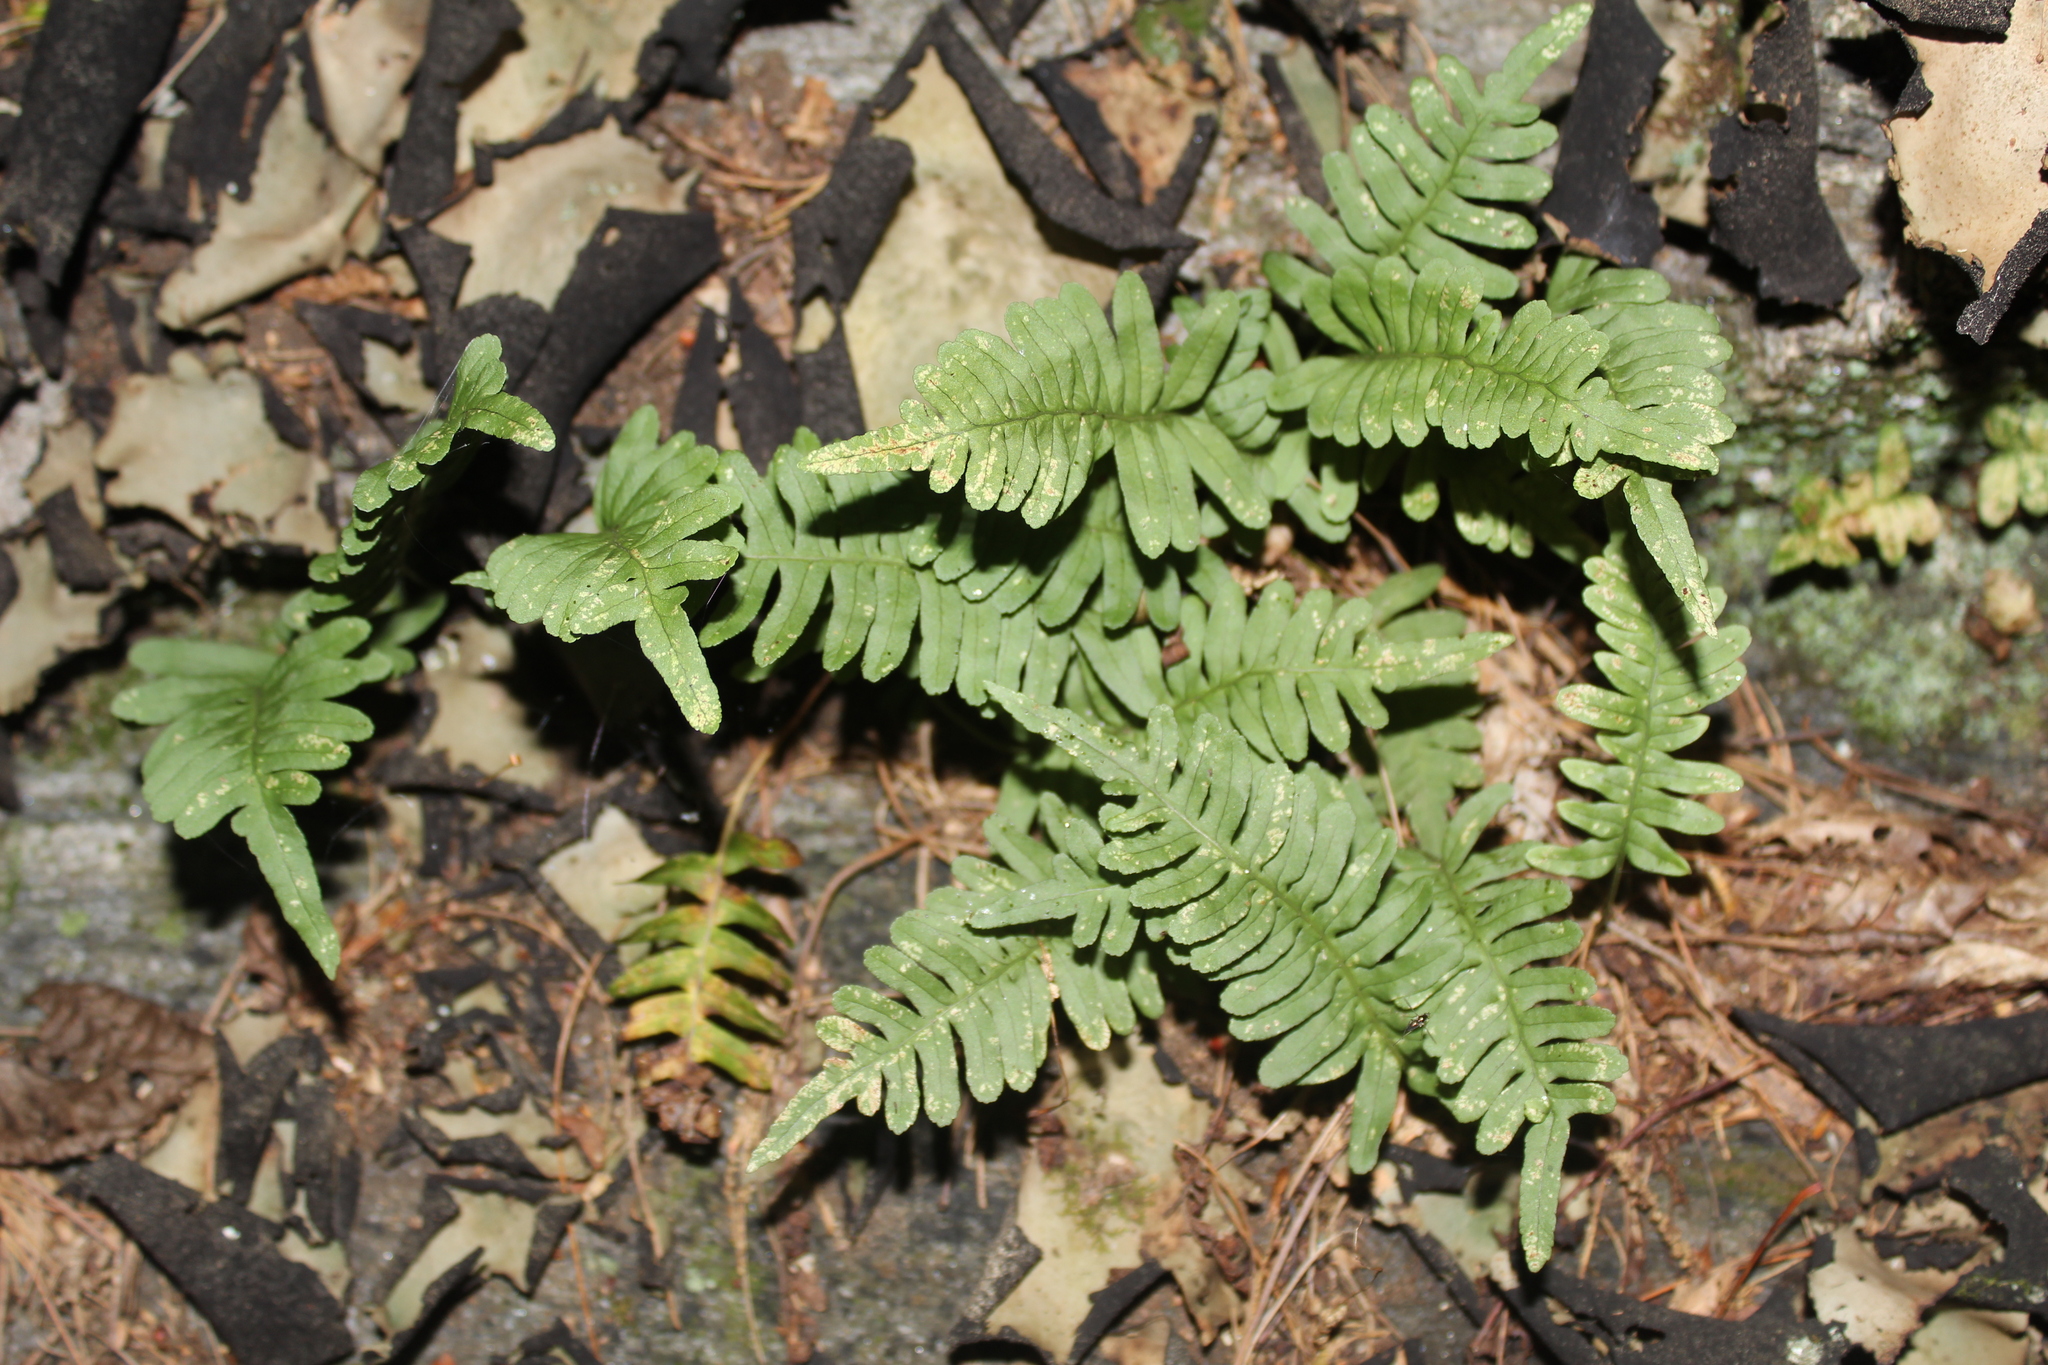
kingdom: Plantae
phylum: Tracheophyta
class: Polypodiopsida
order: Polypodiales
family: Polypodiaceae
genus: Polypodium
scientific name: Polypodium virginianum
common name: American wall fern
